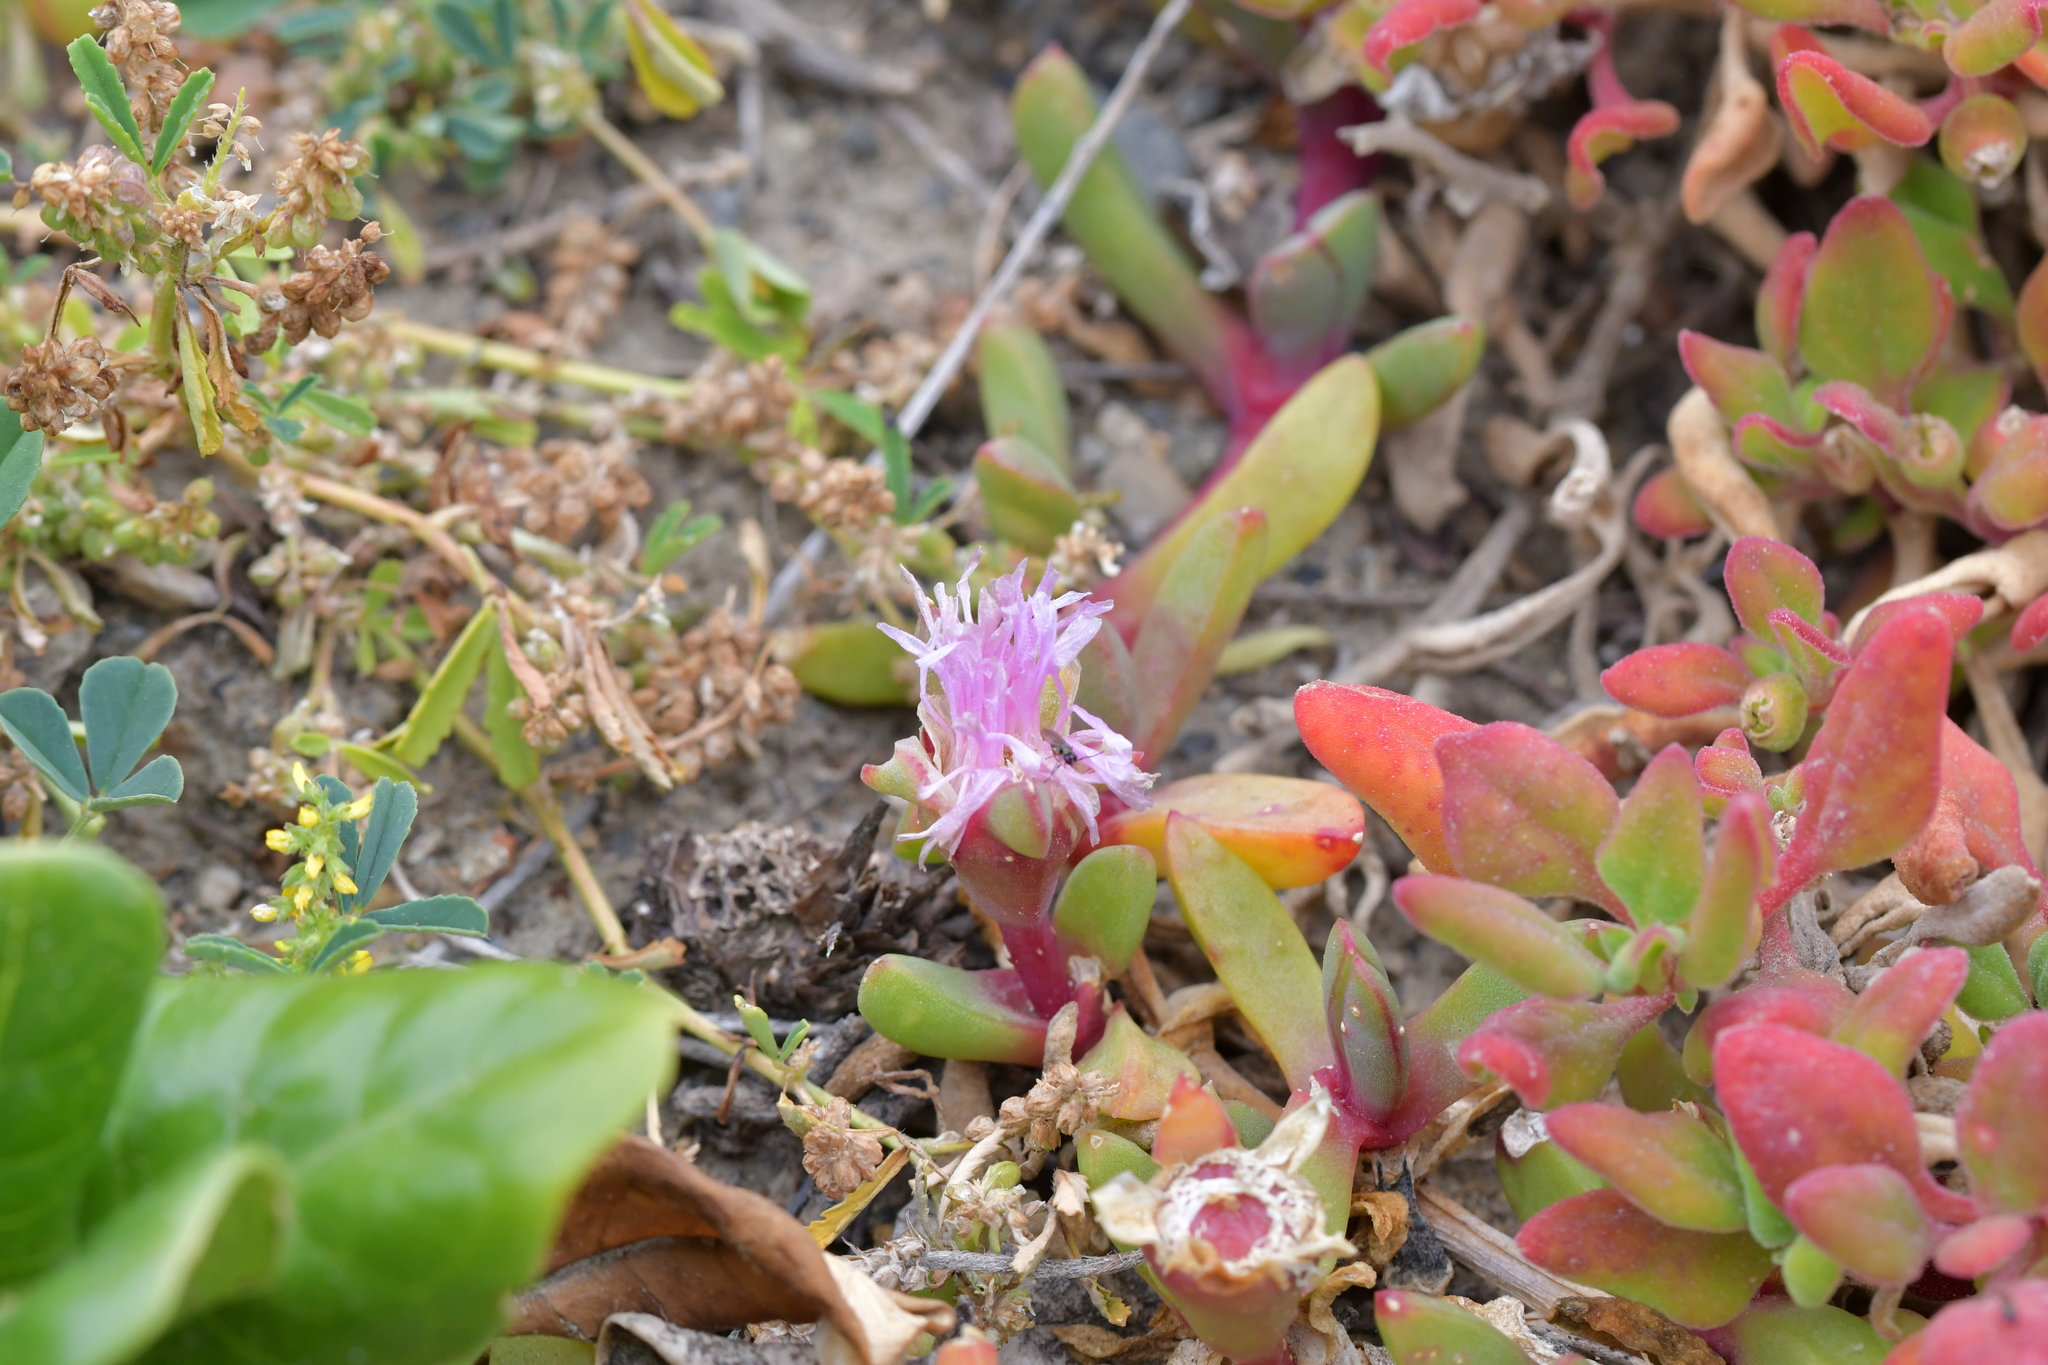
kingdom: Plantae
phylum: Tracheophyta
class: Magnoliopsida
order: Caryophyllales
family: Aizoaceae
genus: Disphyma
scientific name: Disphyma australe
